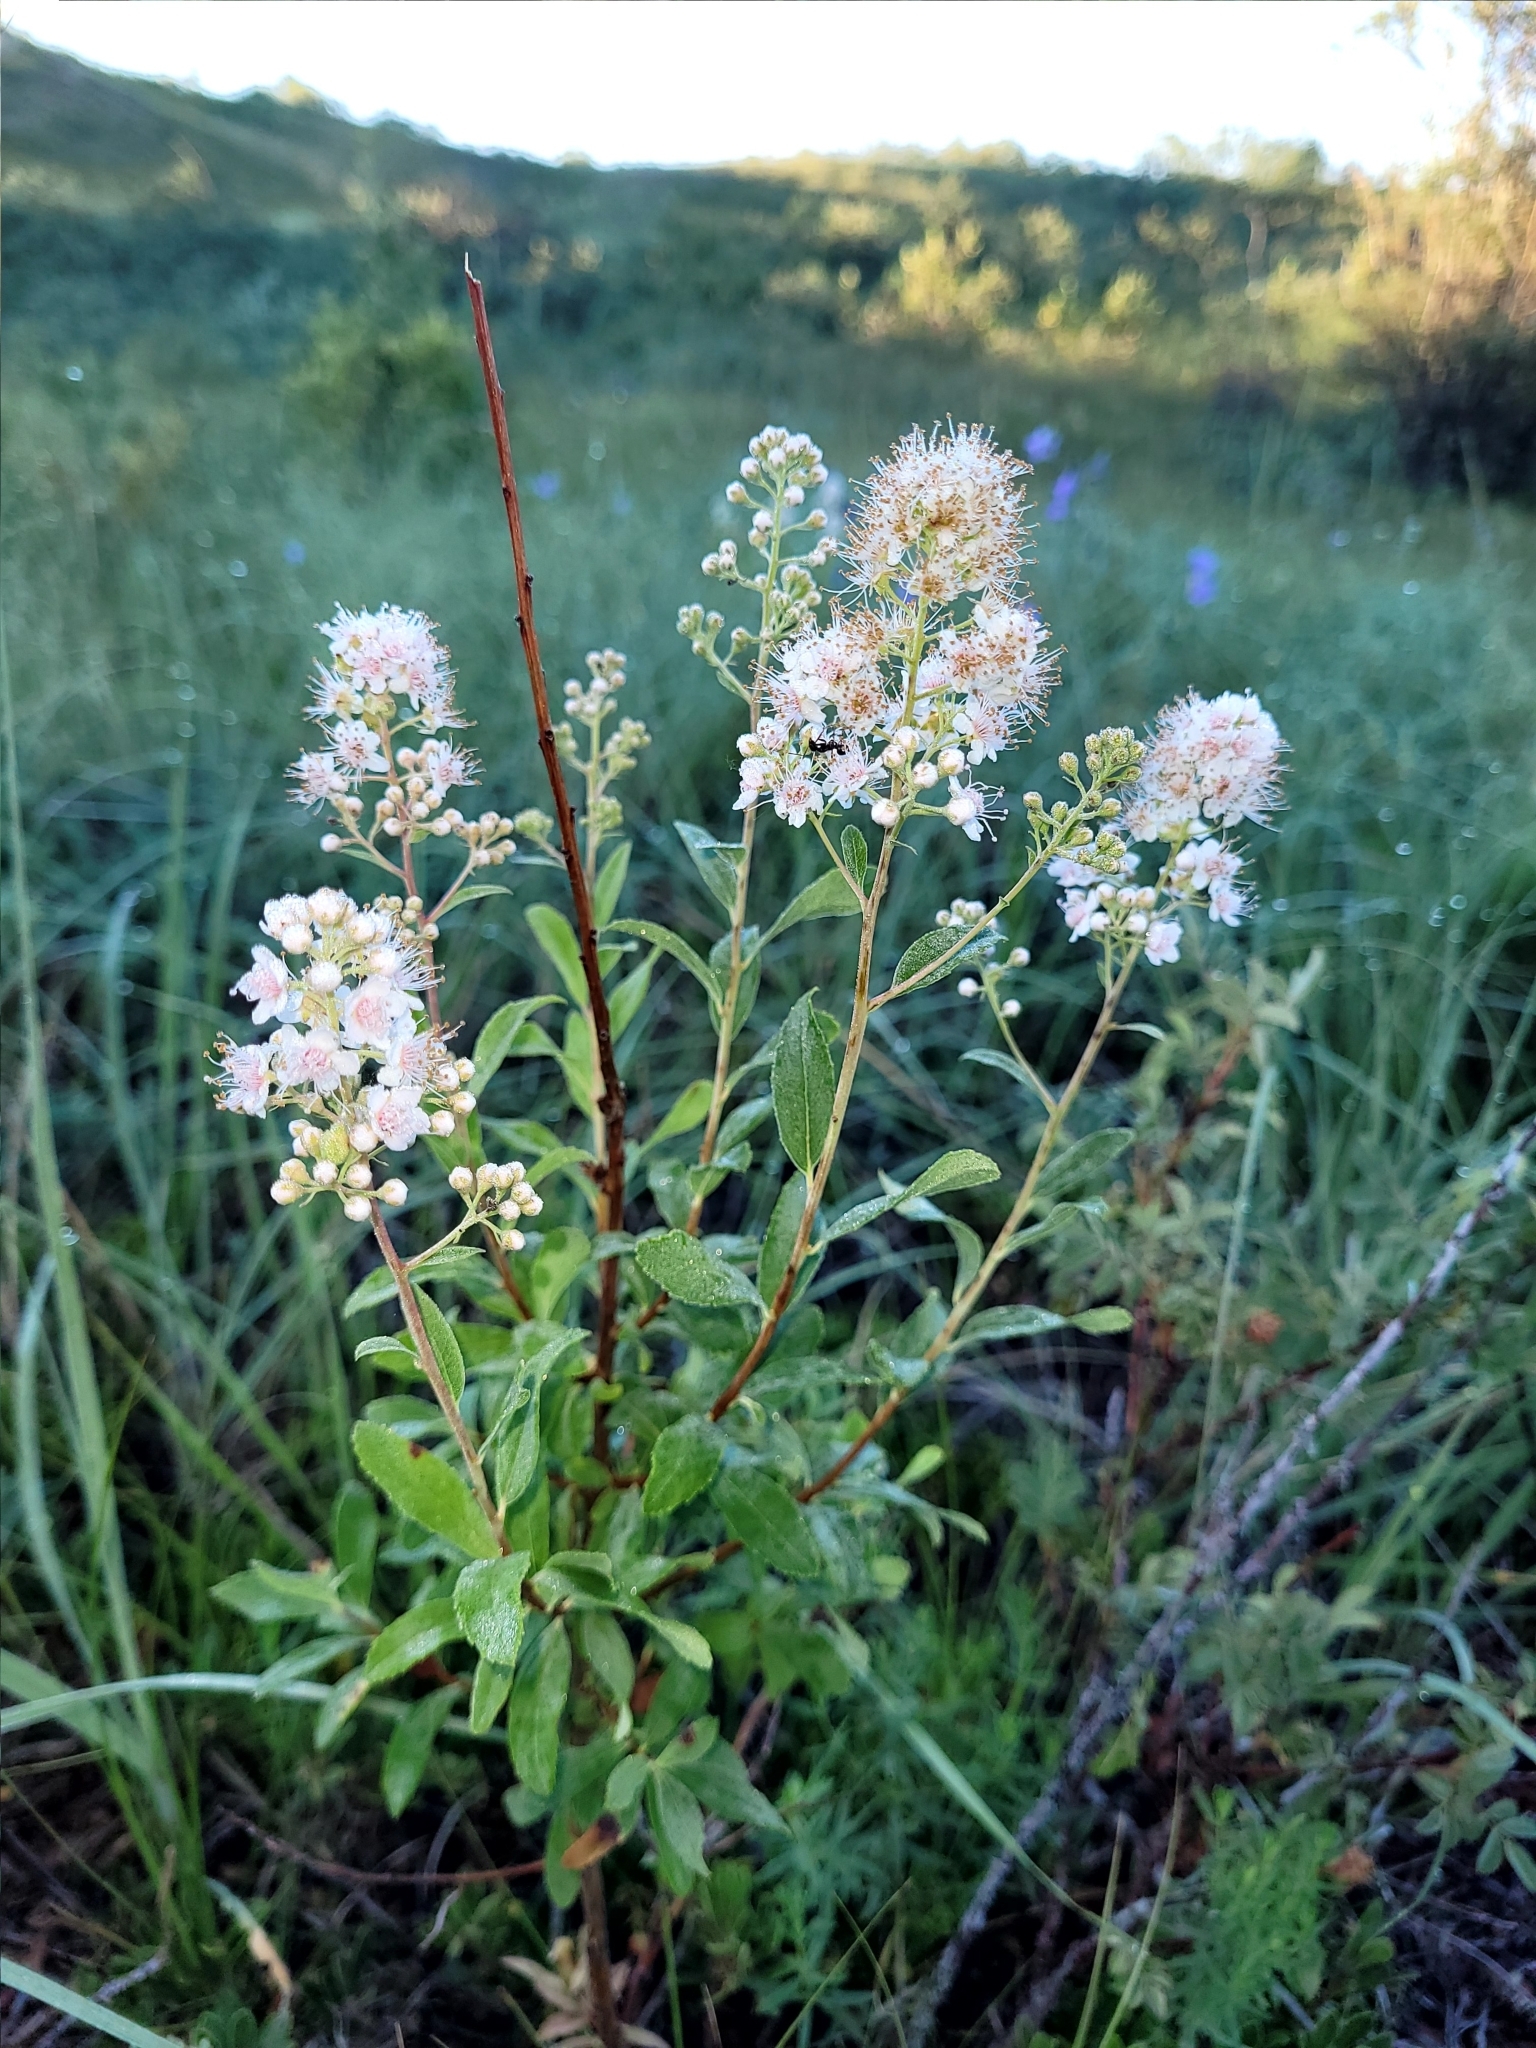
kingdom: Plantae
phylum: Tracheophyta
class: Magnoliopsida
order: Rosales
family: Rosaceae
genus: Spiraea
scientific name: Spiraea alba
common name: Pale bridewort
